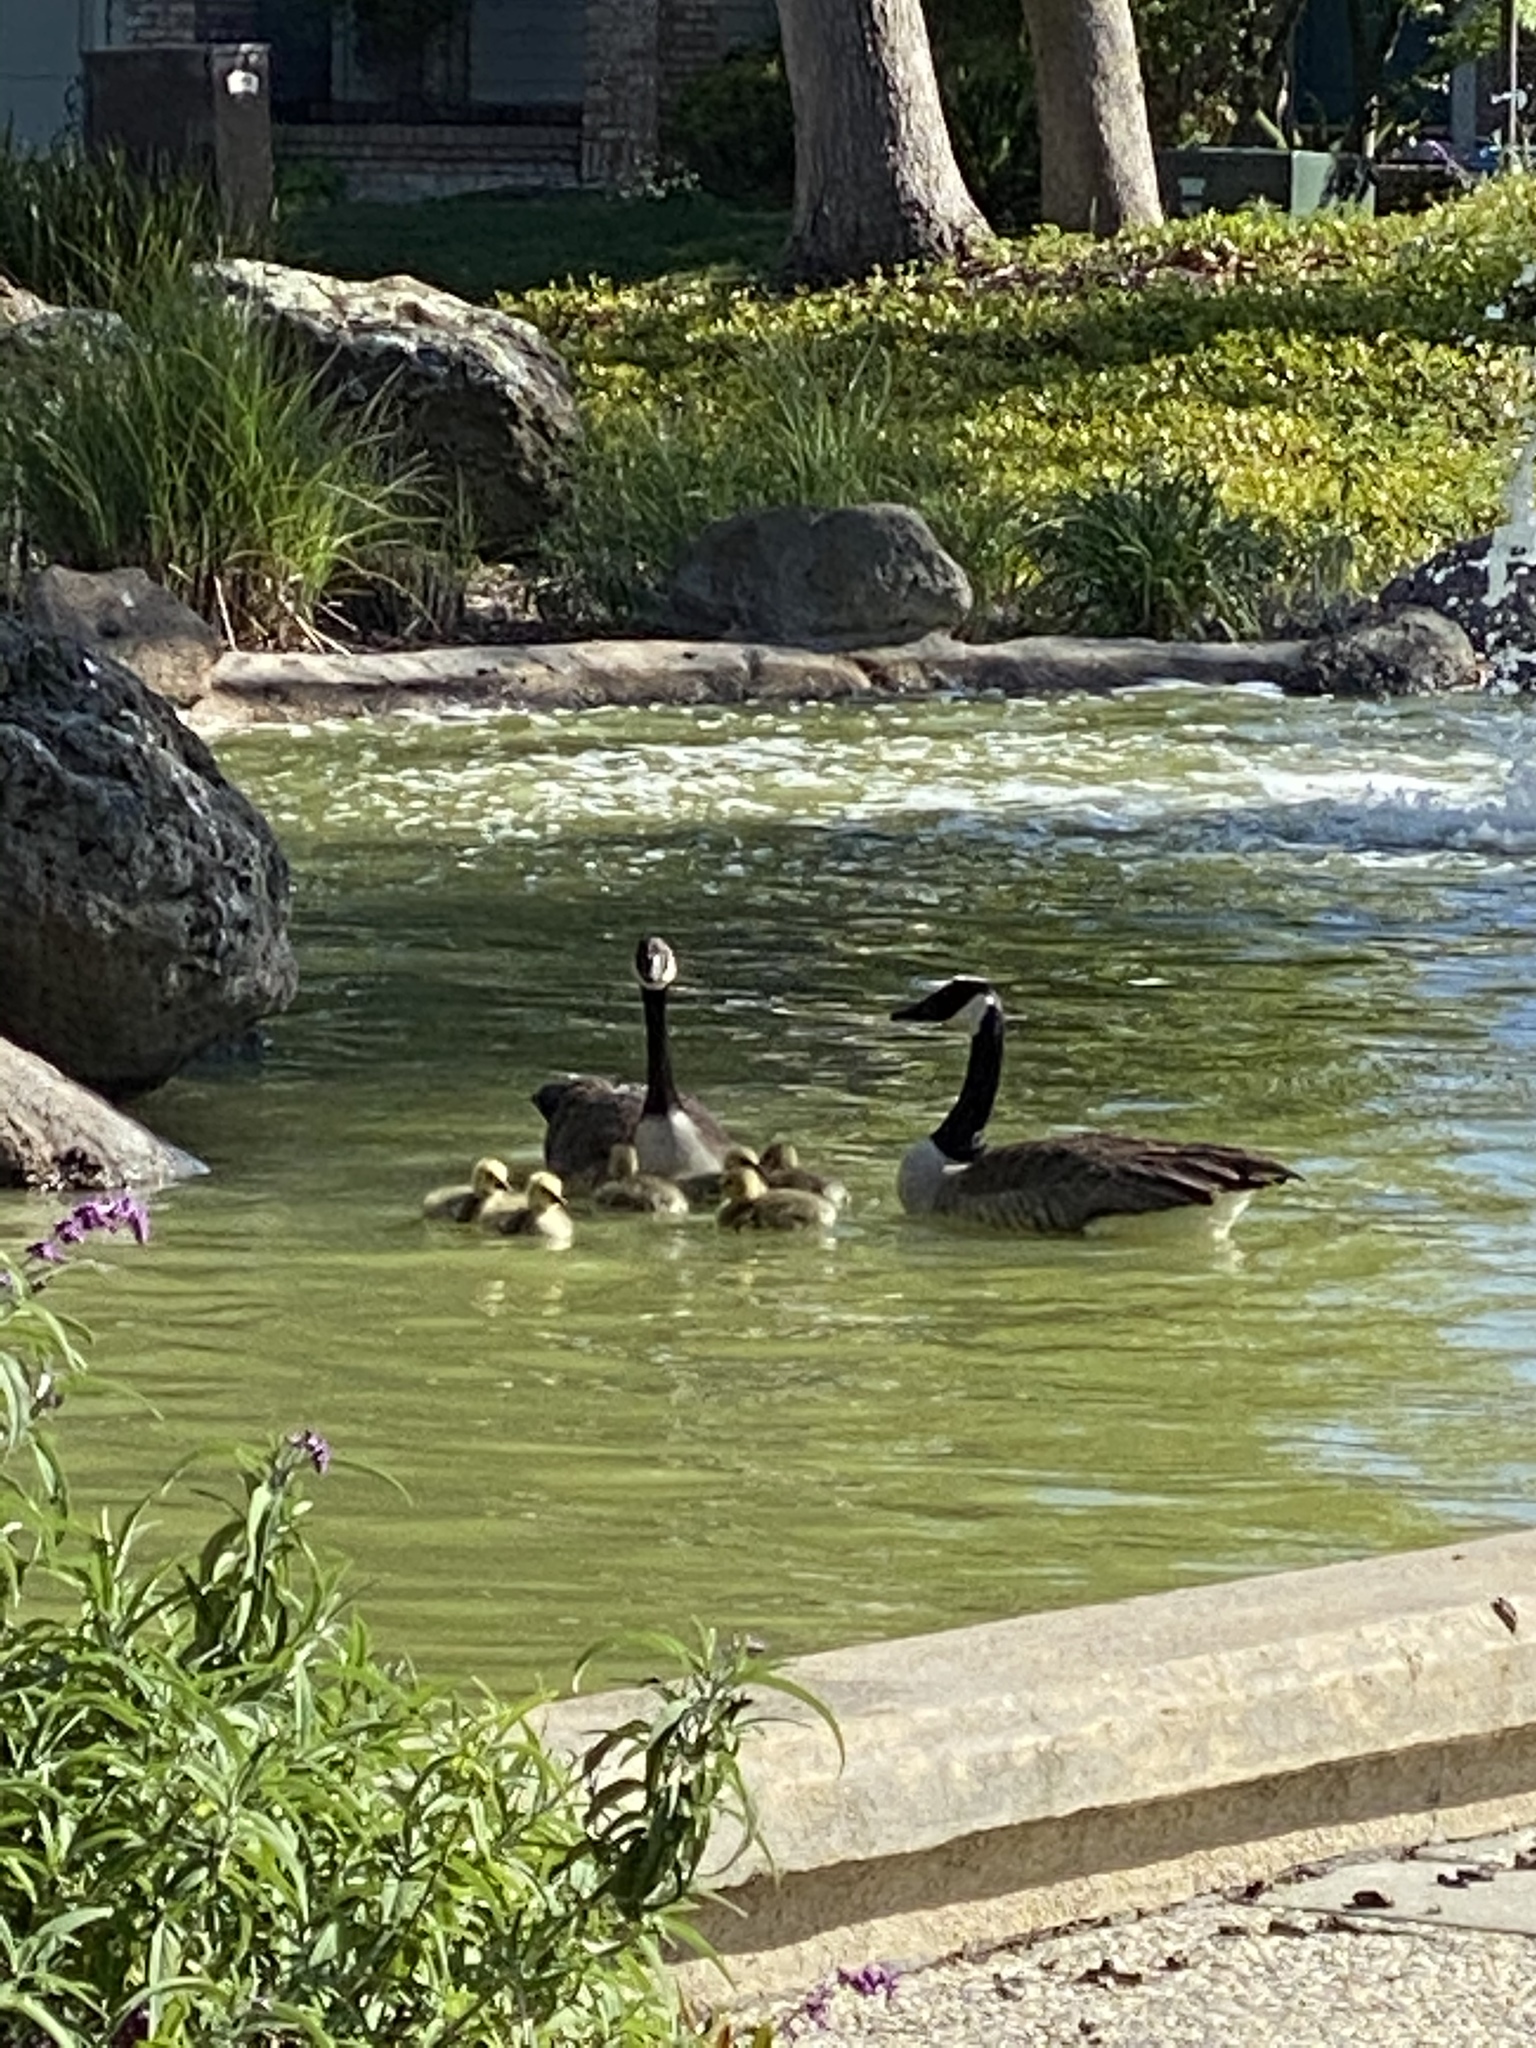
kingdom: Animalia
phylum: Chordata
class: Aves
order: Anseriformes
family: Anatidae
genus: Branta
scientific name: Branta canadensis
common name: Canada goose
